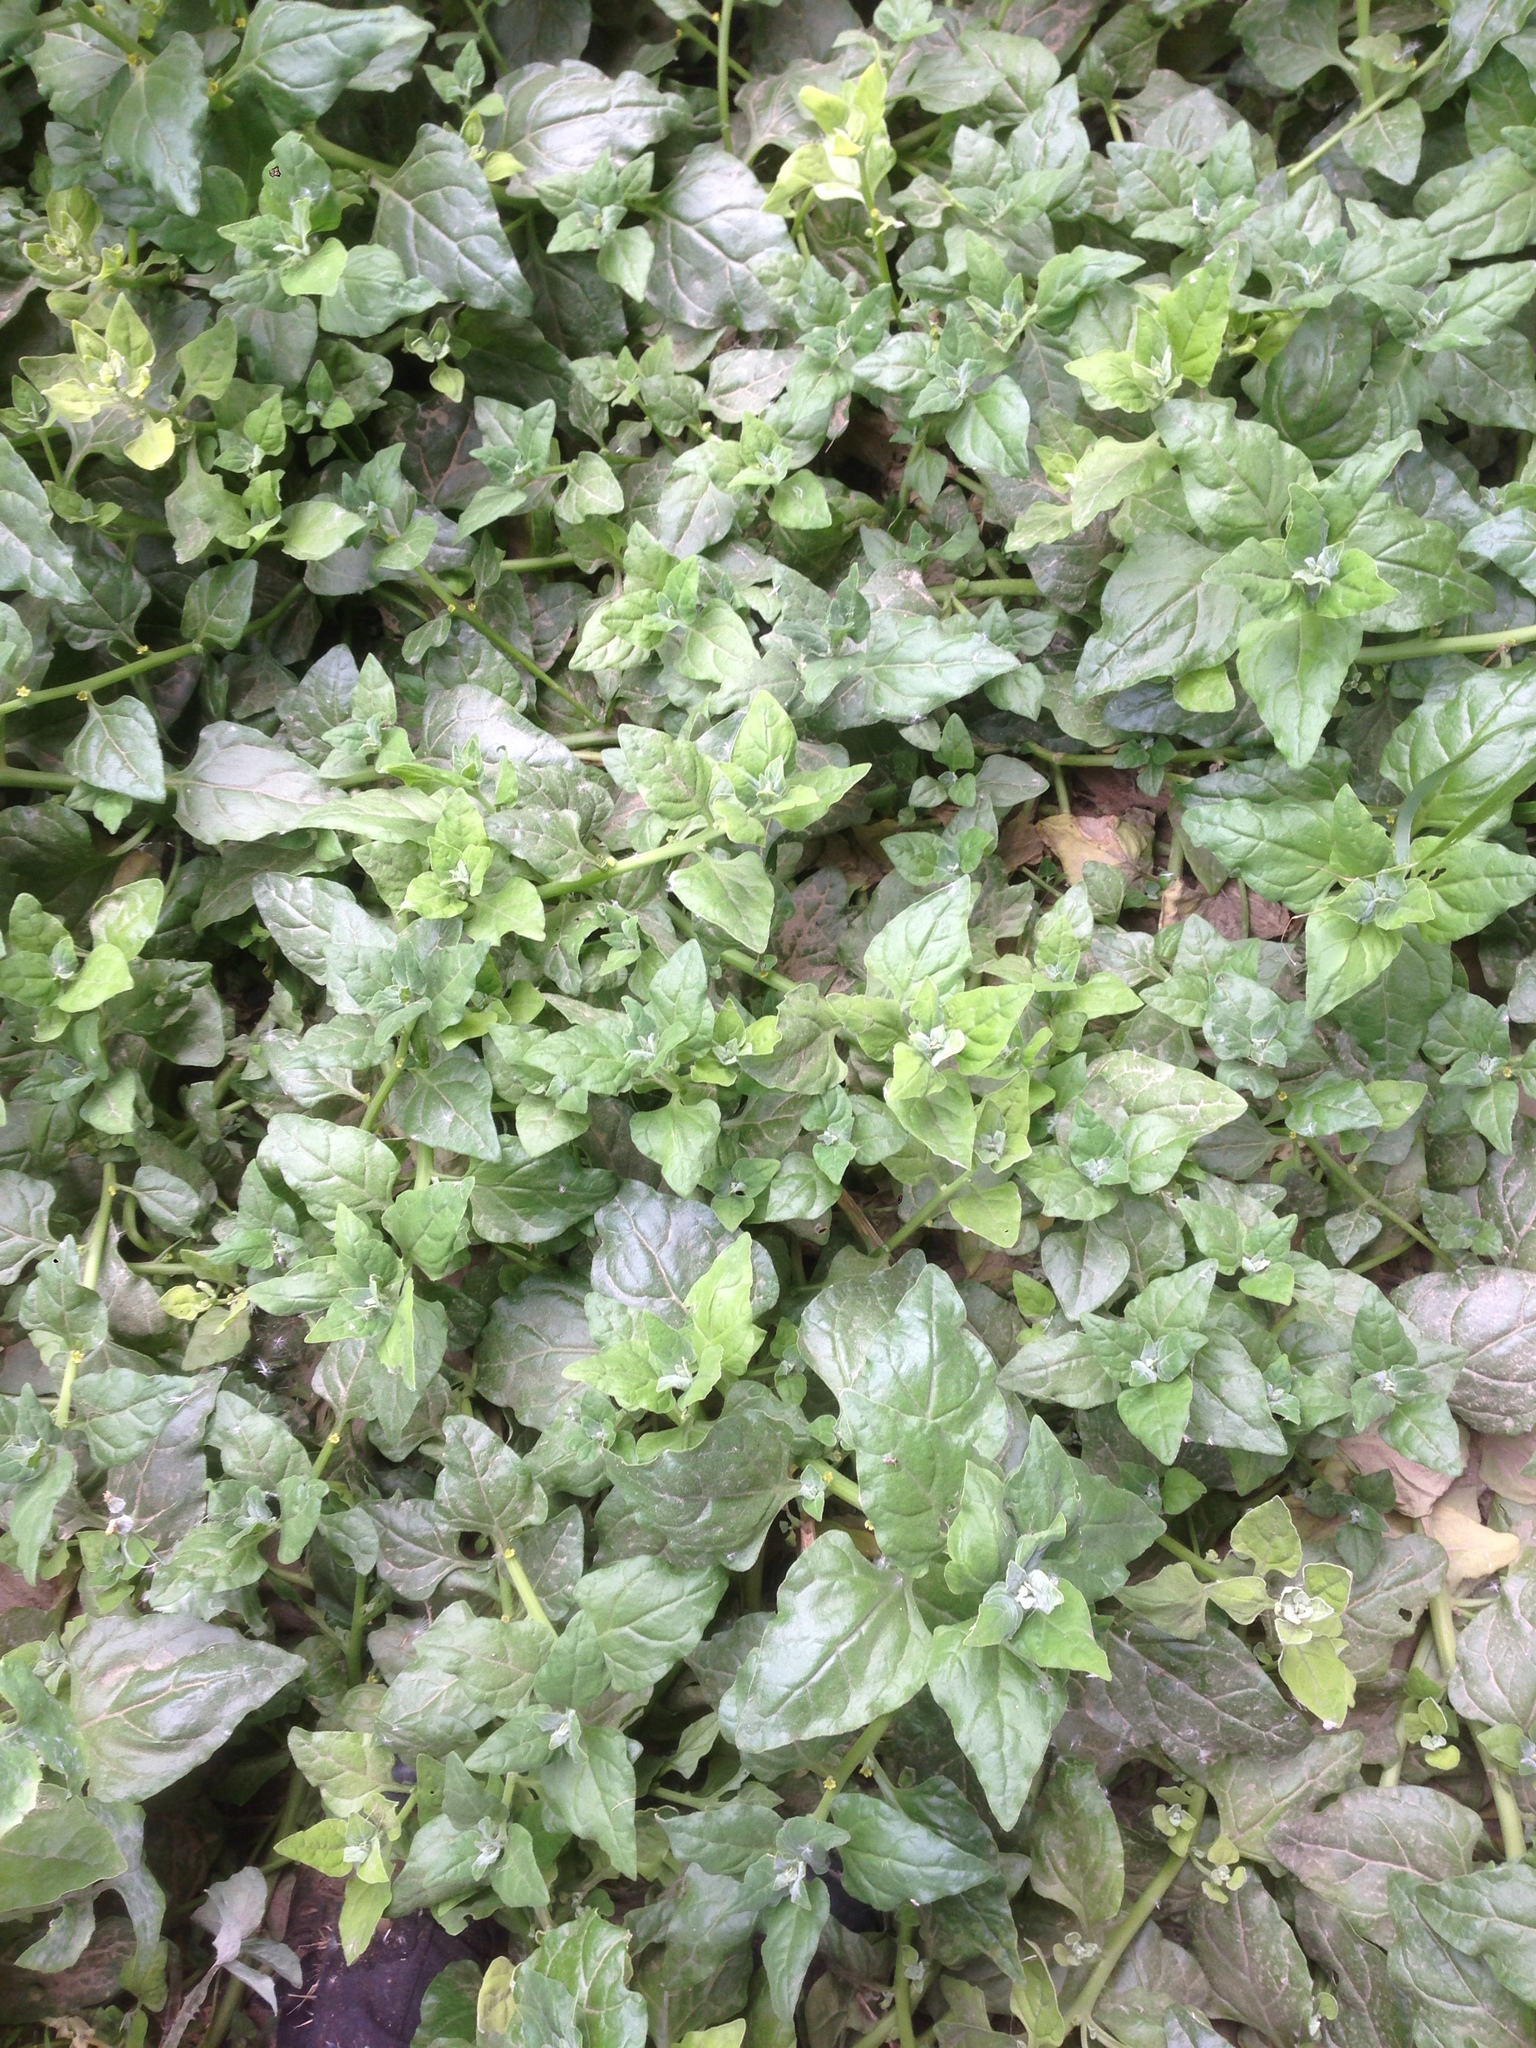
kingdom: Plantae
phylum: Tracheophyta
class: Magnoliopsida
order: Caryophyllales
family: Aizoaceae
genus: Tetragonia
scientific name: Tetragonia tetragonoides
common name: New zealand-spinach
